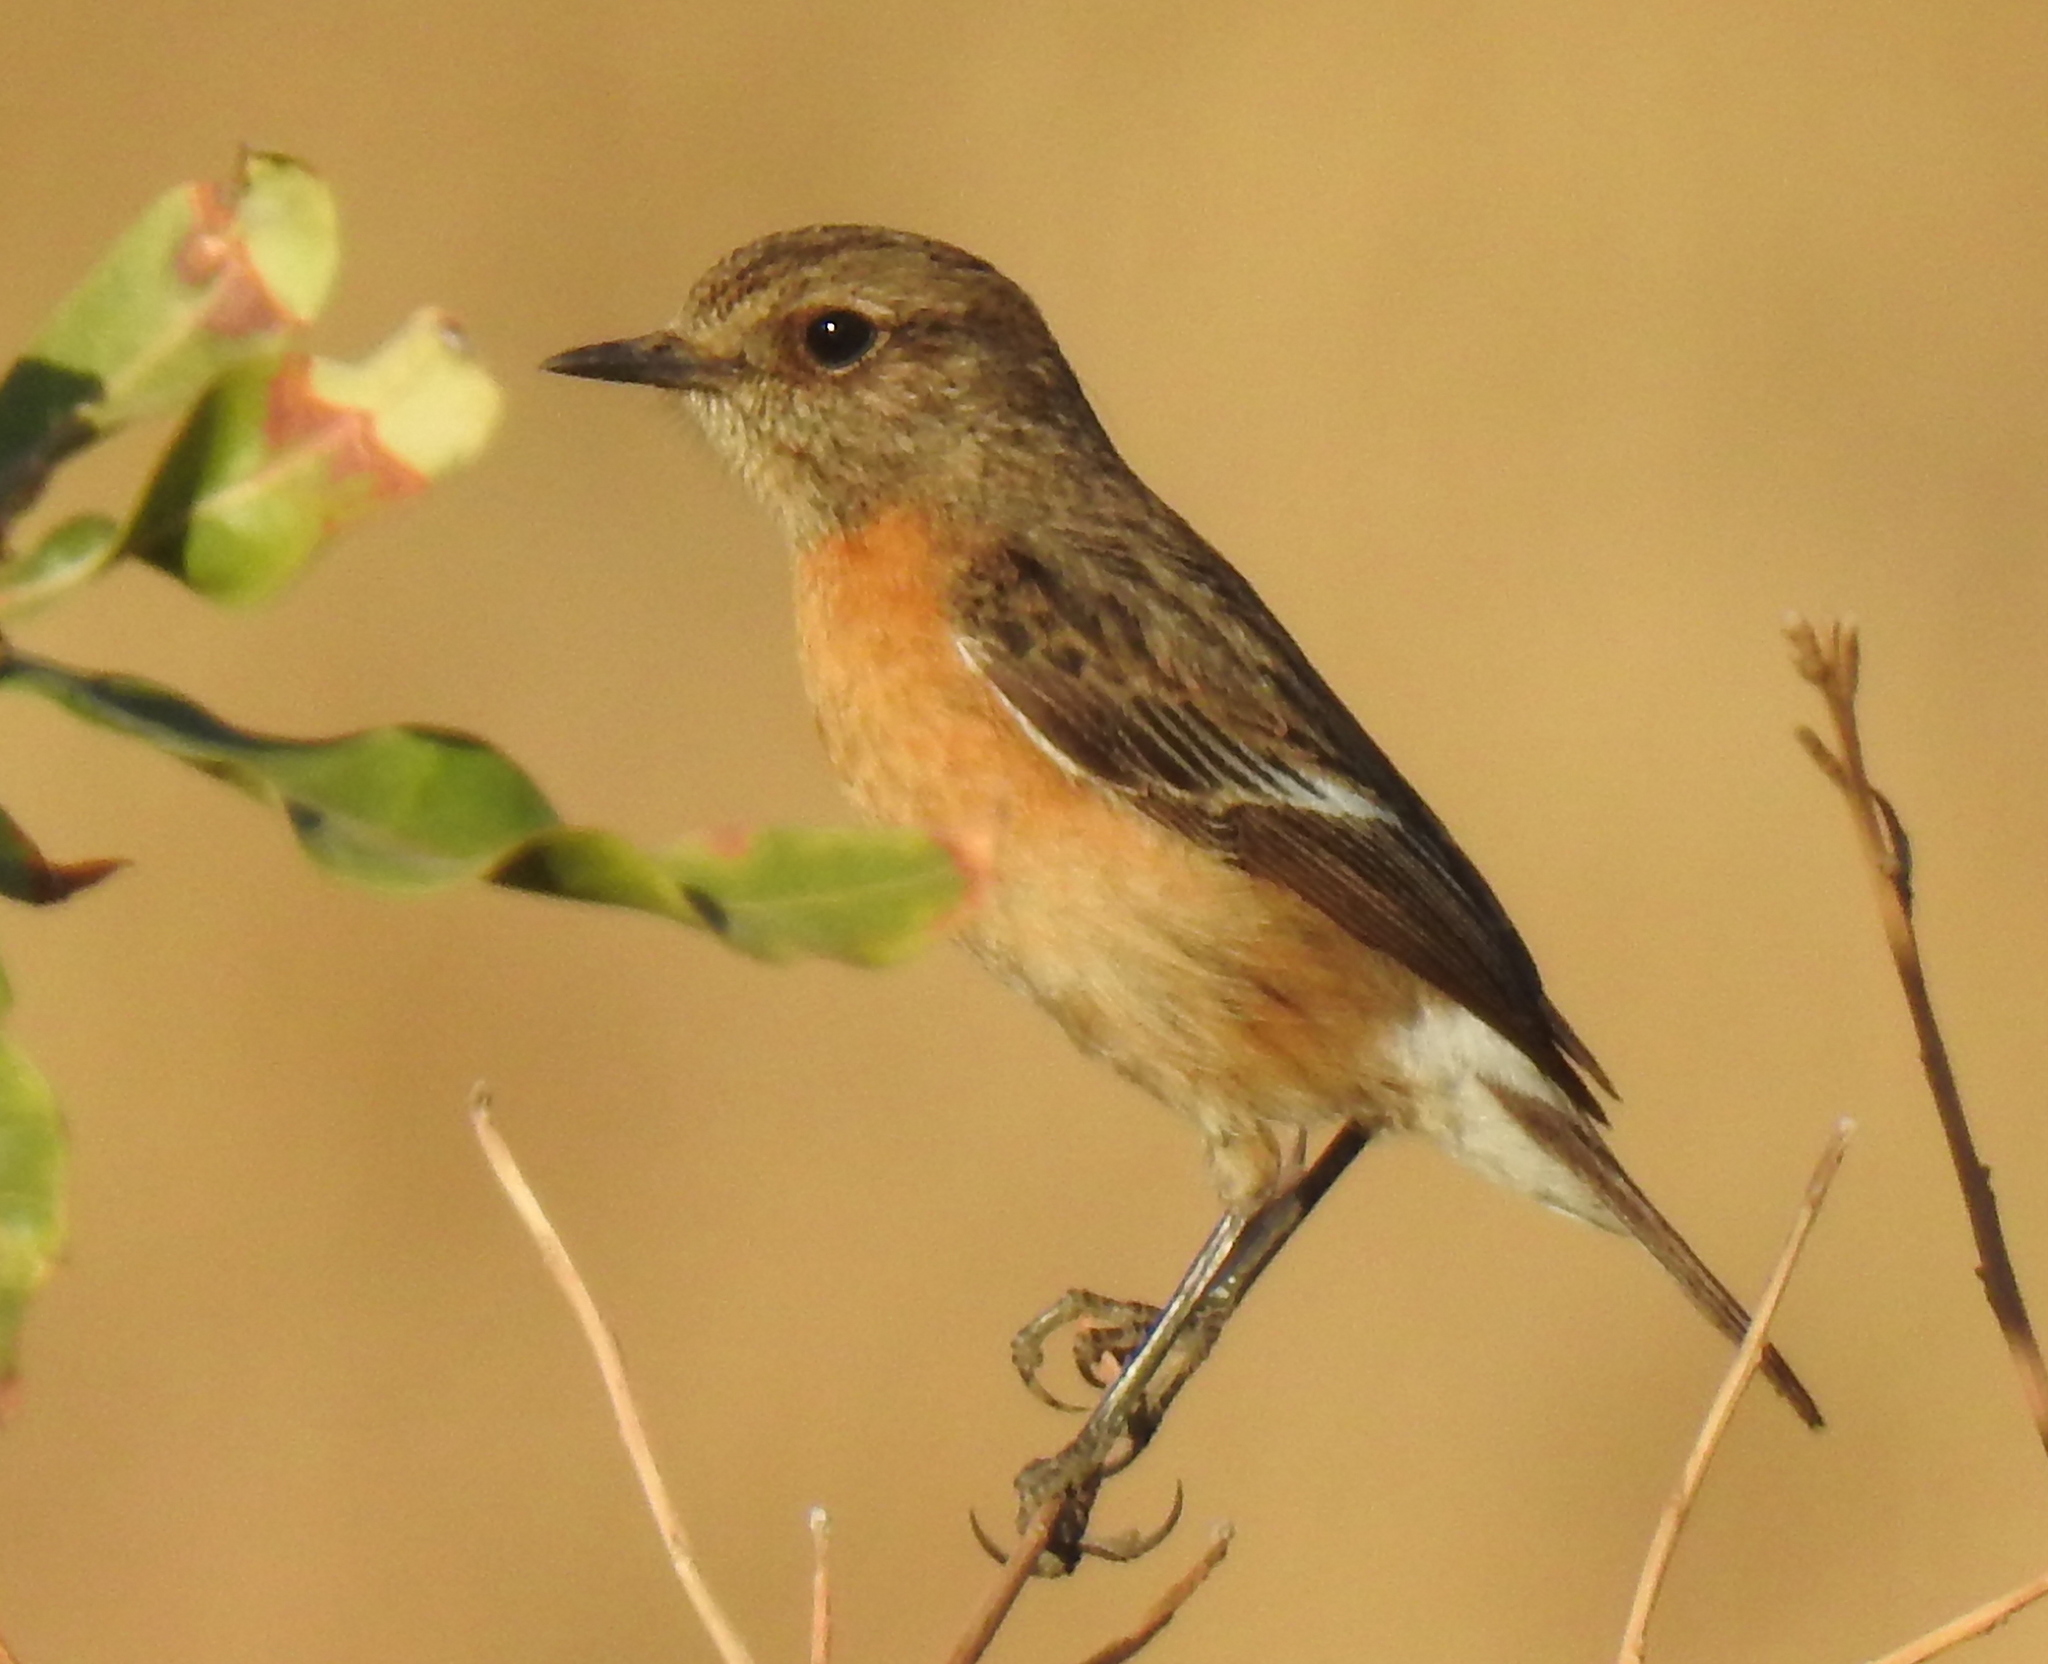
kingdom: Animalia
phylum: Chordata
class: Aves
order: Passeriformes
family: Muscicapidae
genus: Saxicola
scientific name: Saxicola torquatus
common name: African stonechat
